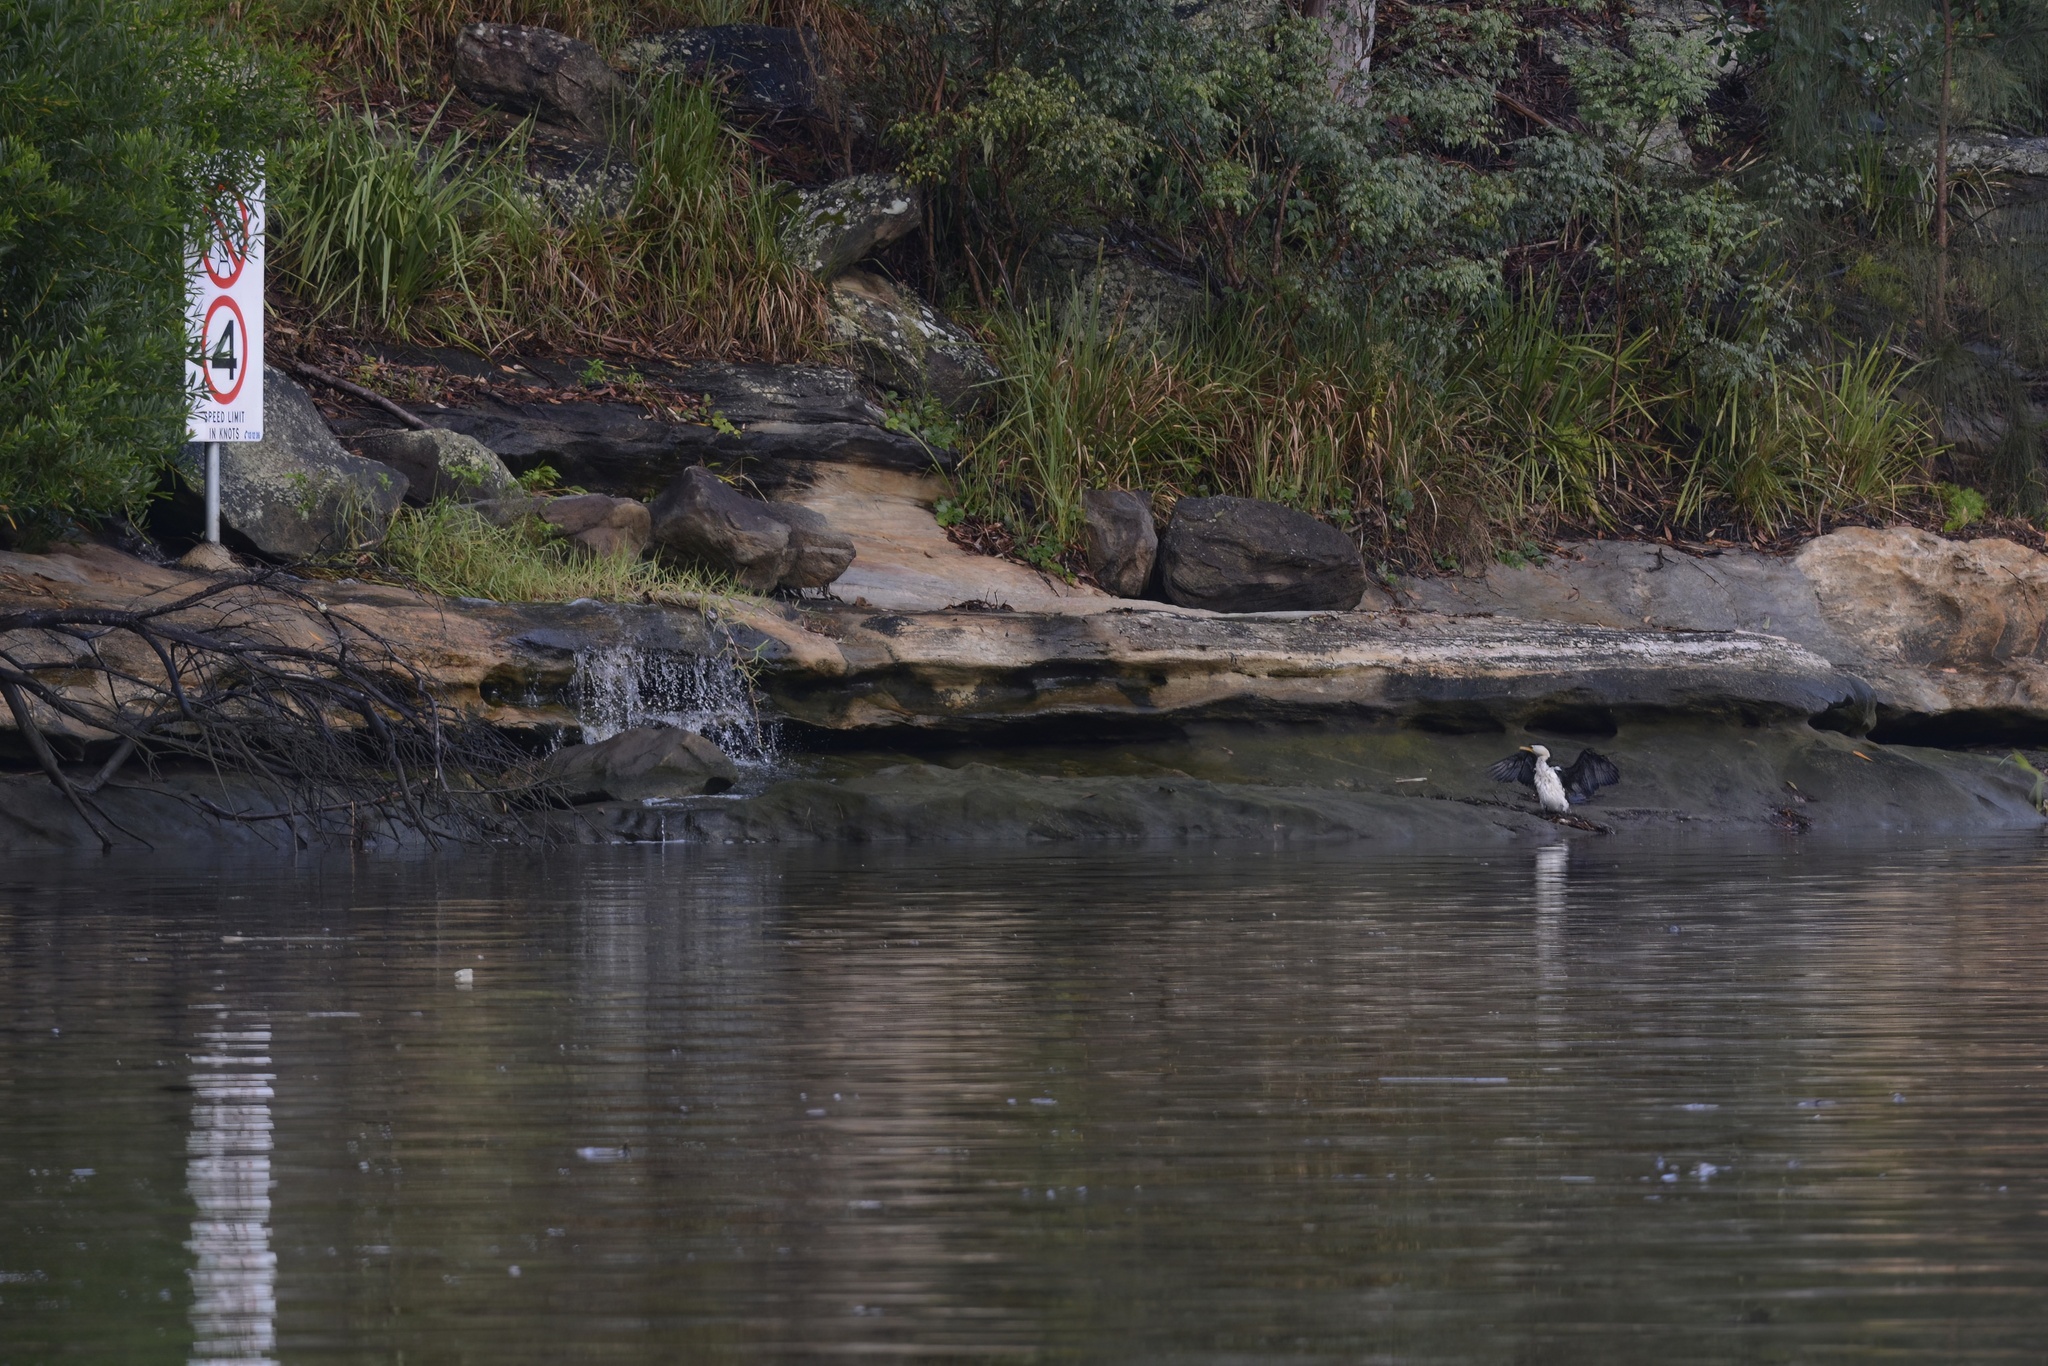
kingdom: Animalia
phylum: Chordata
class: Aves
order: Suliformes
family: Phalacrocoracidae
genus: Microcarbo
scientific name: Microcarbo melanoleucos
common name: Little pied cormorant
